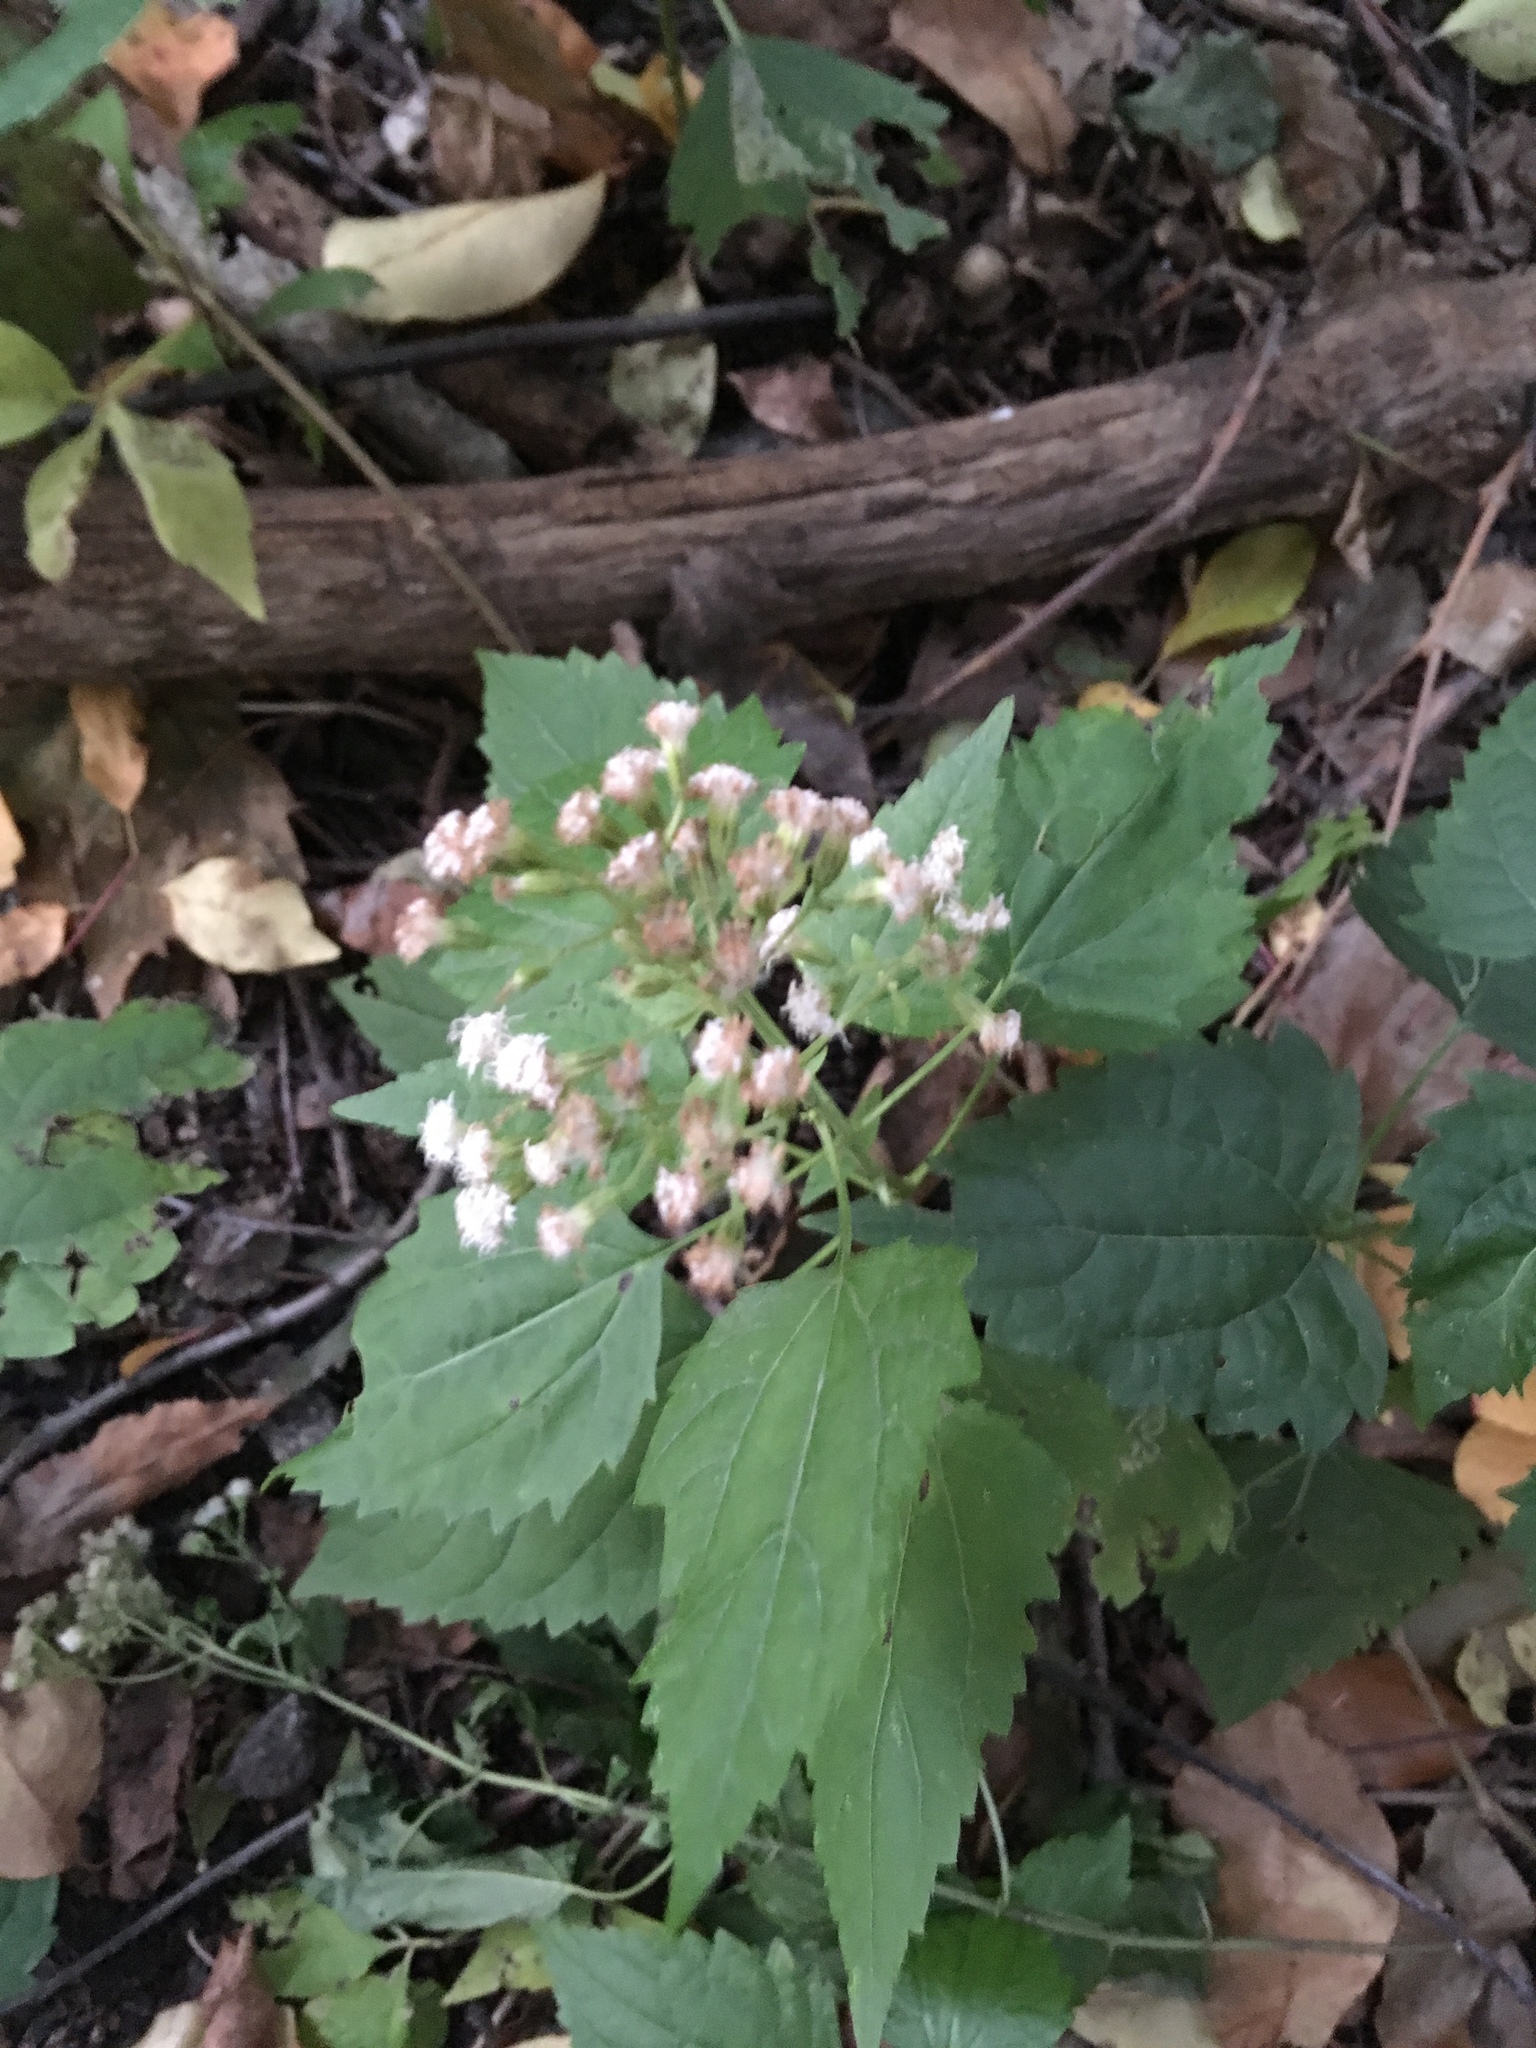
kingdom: Plantae
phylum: Tracheophyta
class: Magnoliopsida
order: Asterales
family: Asteraceae
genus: Ageratina
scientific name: Ageratina altissima
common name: White snakeroot
